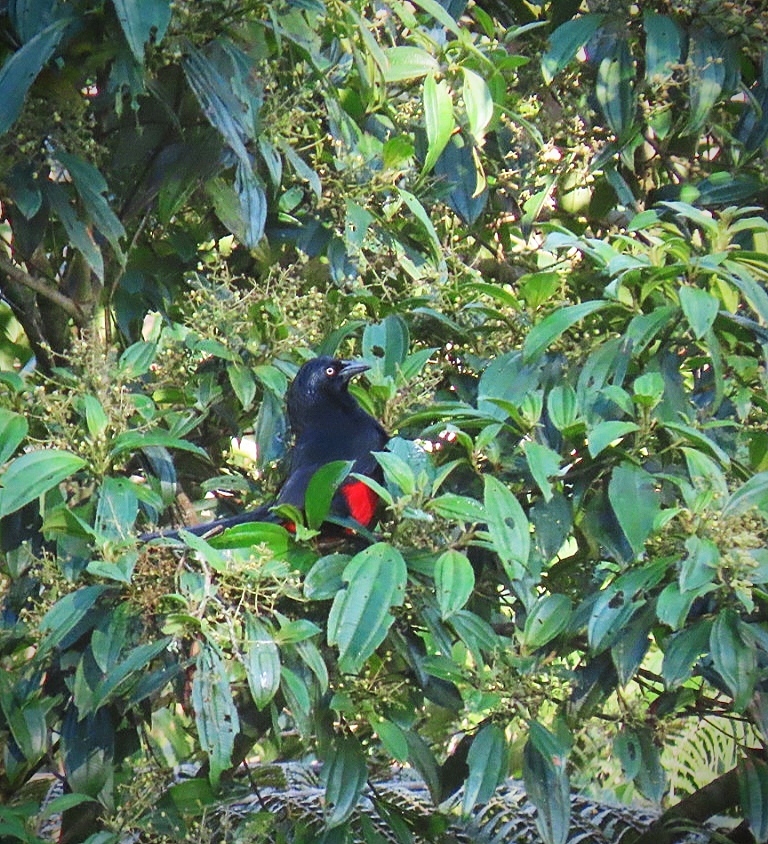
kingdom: Animalia
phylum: Chordata
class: Aves
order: Passeriformes
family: Icteridae
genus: Hypopyrrhus
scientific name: Hypopyrrhus pyrohypogaster
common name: Red-bellied grackle
